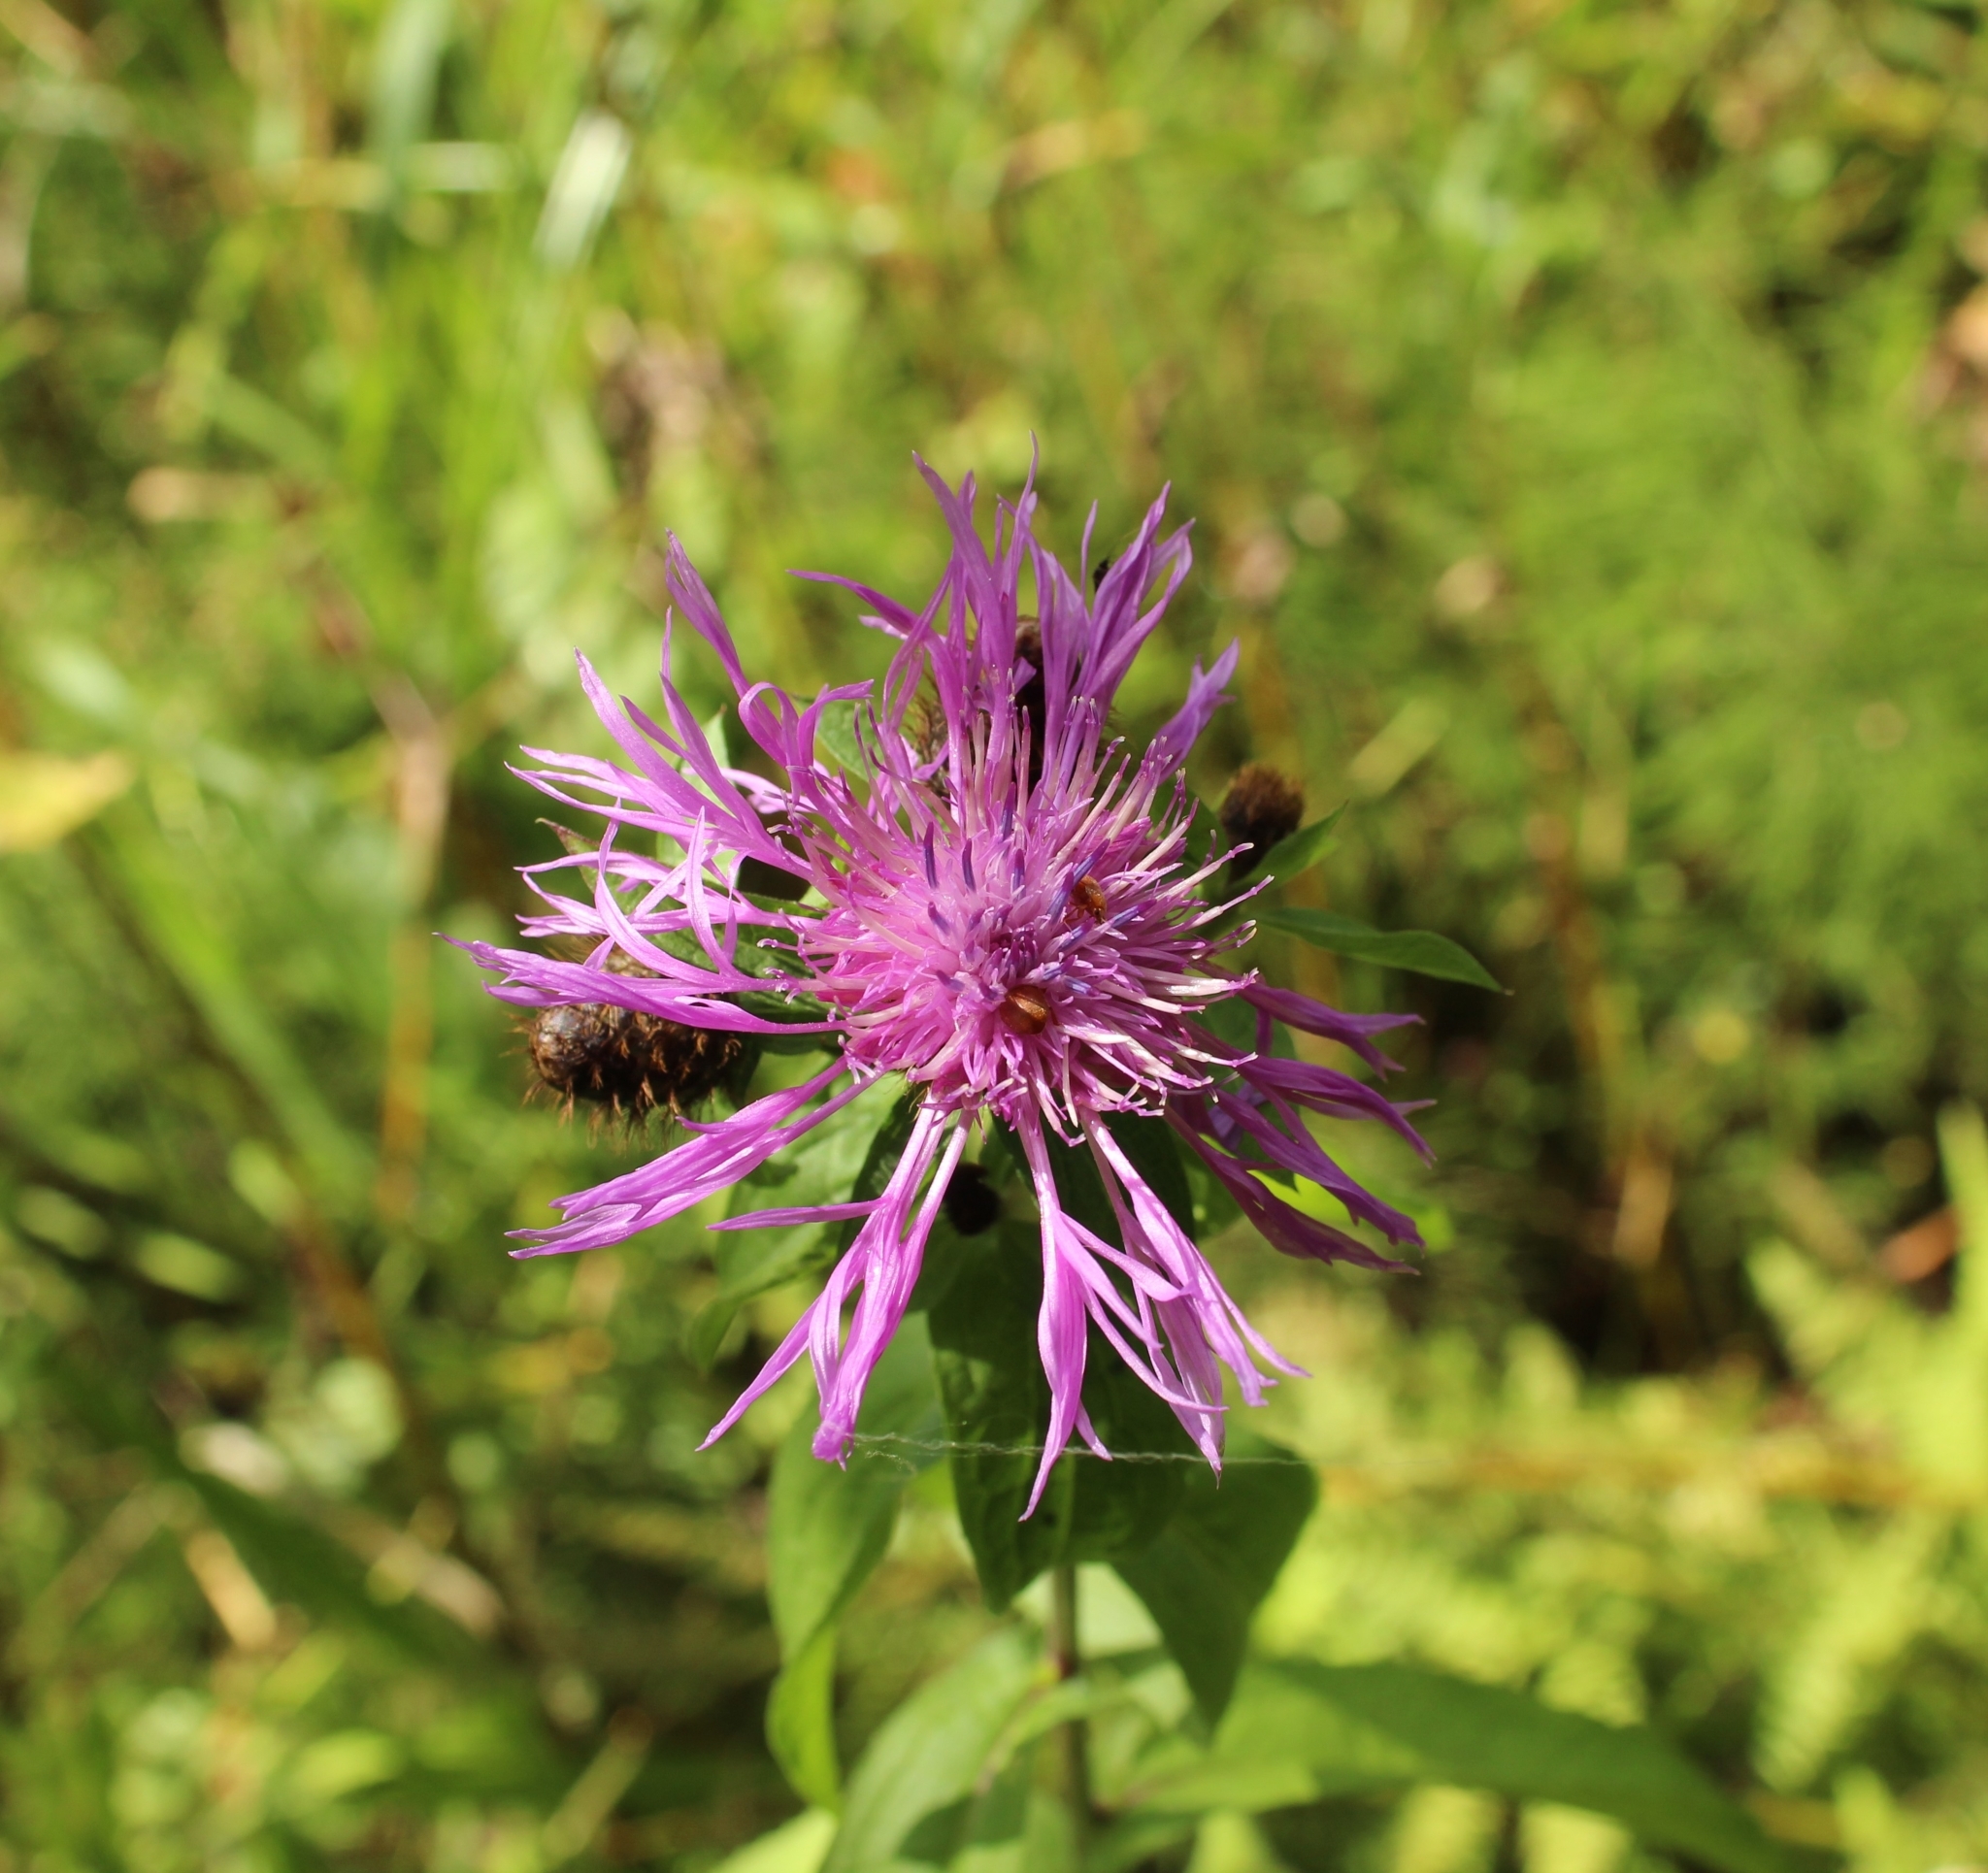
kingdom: Plantae
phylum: Tracheophyta
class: Magnoliopsida
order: Asterales
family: Asteraceae
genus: Centaurea
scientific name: Centaurea phrygia
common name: Wig knapweed
